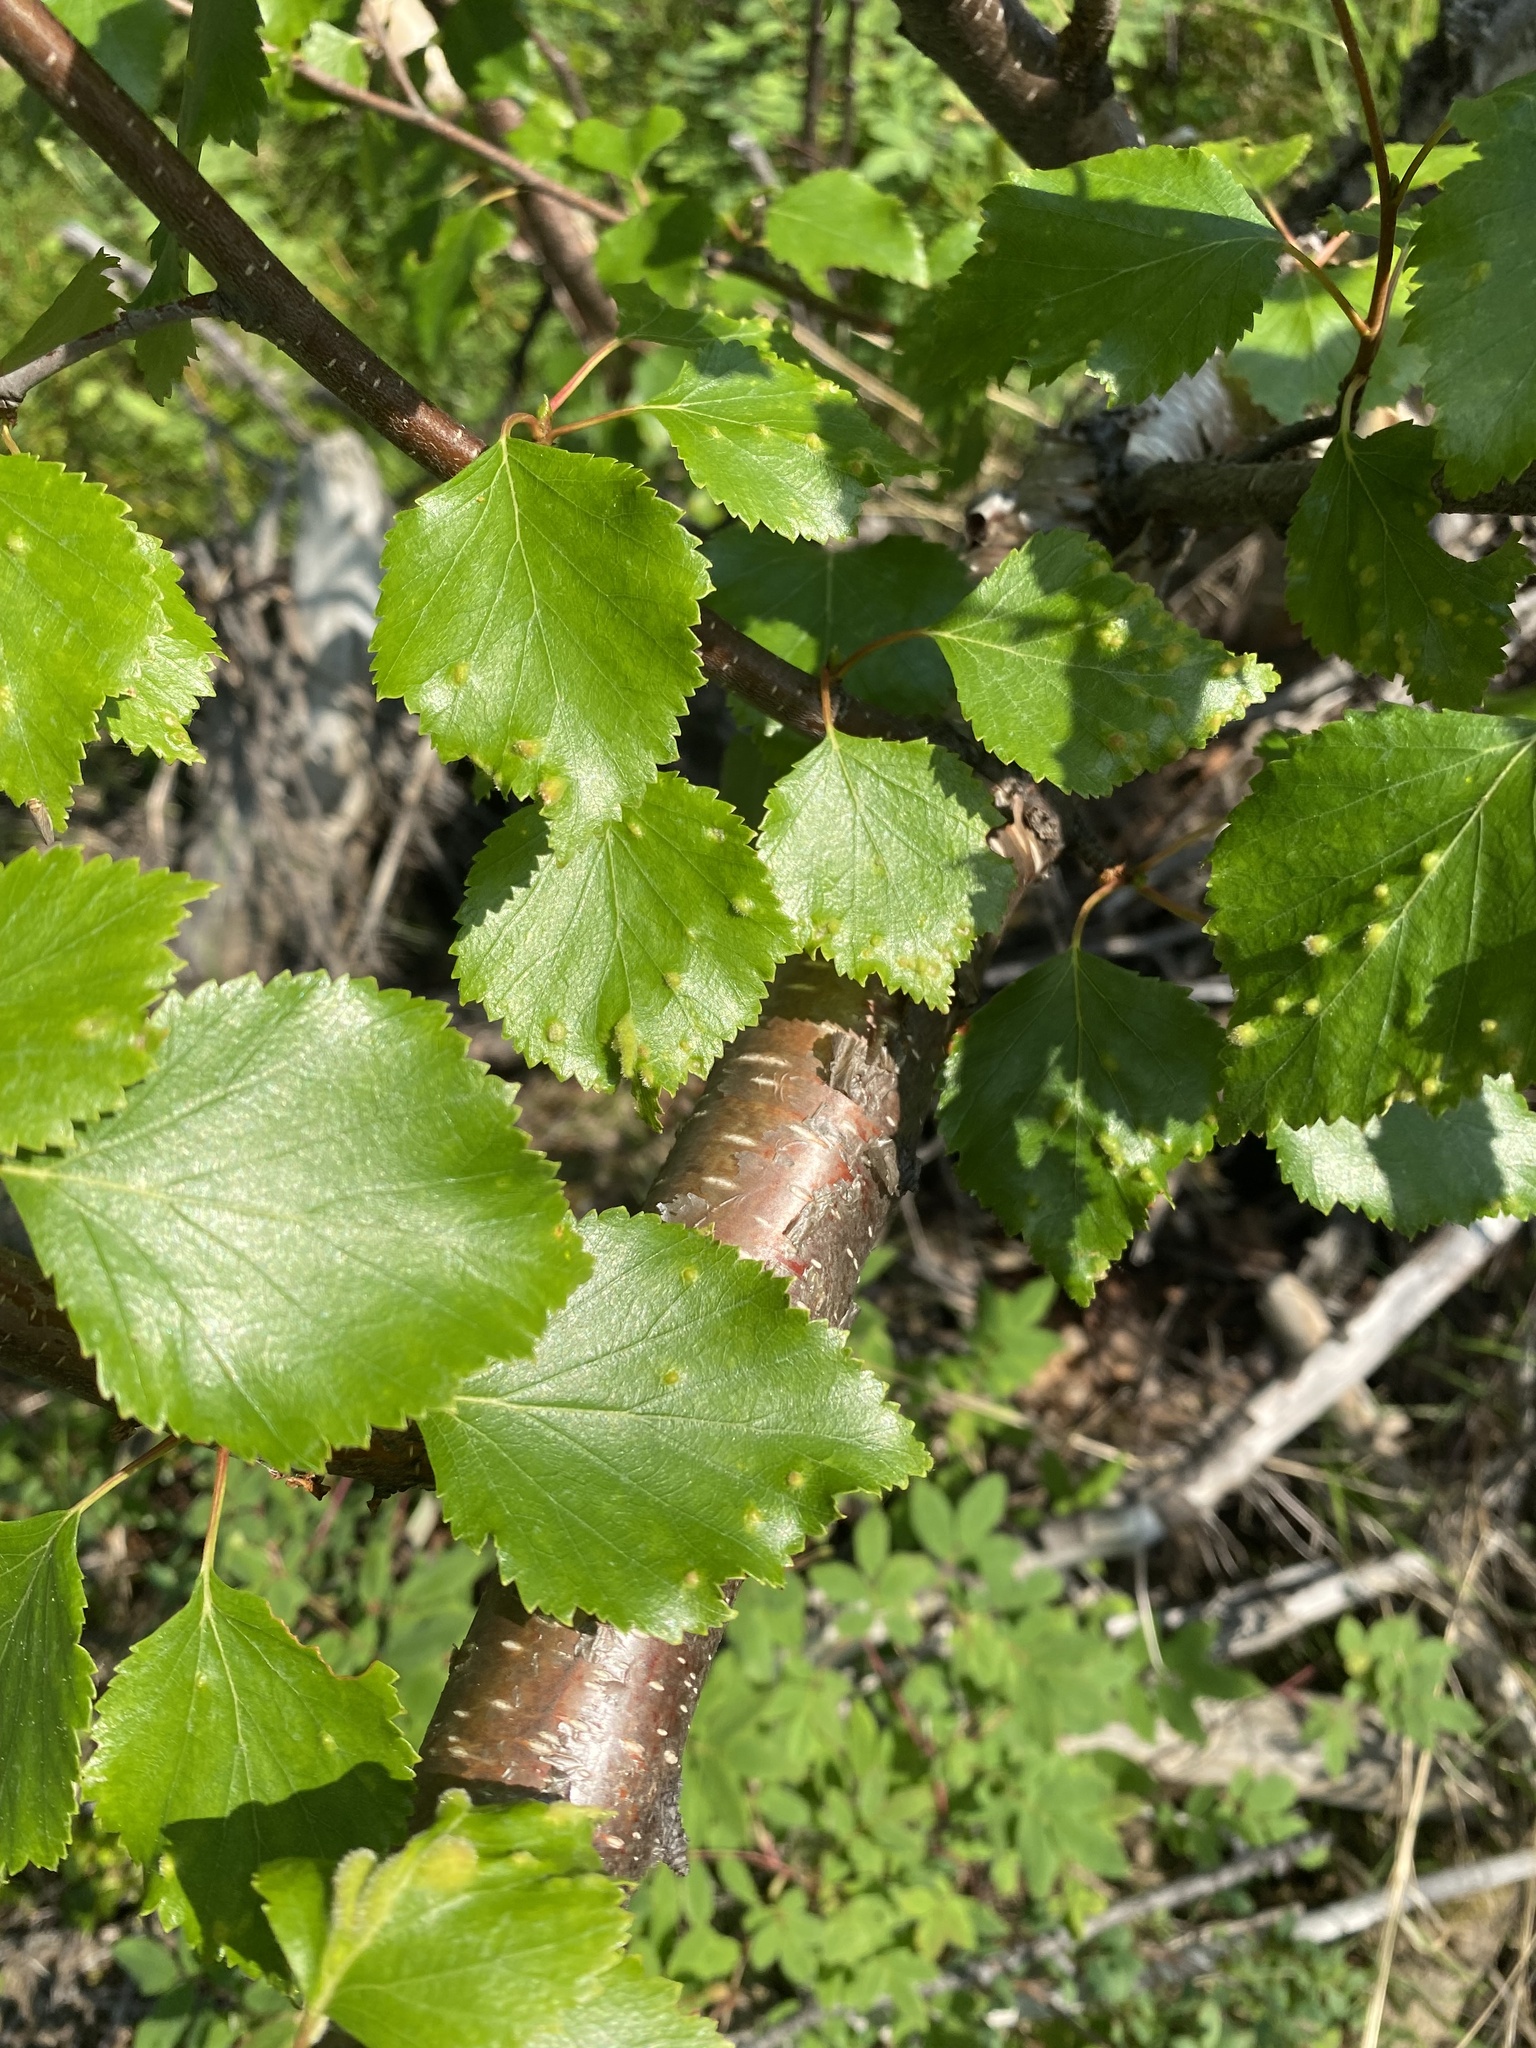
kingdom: Plantae
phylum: Tracheophyta
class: Magnoliopsida
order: Fagales
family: Betulaceae
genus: Betula
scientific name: Betula pendula
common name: Silver birch
